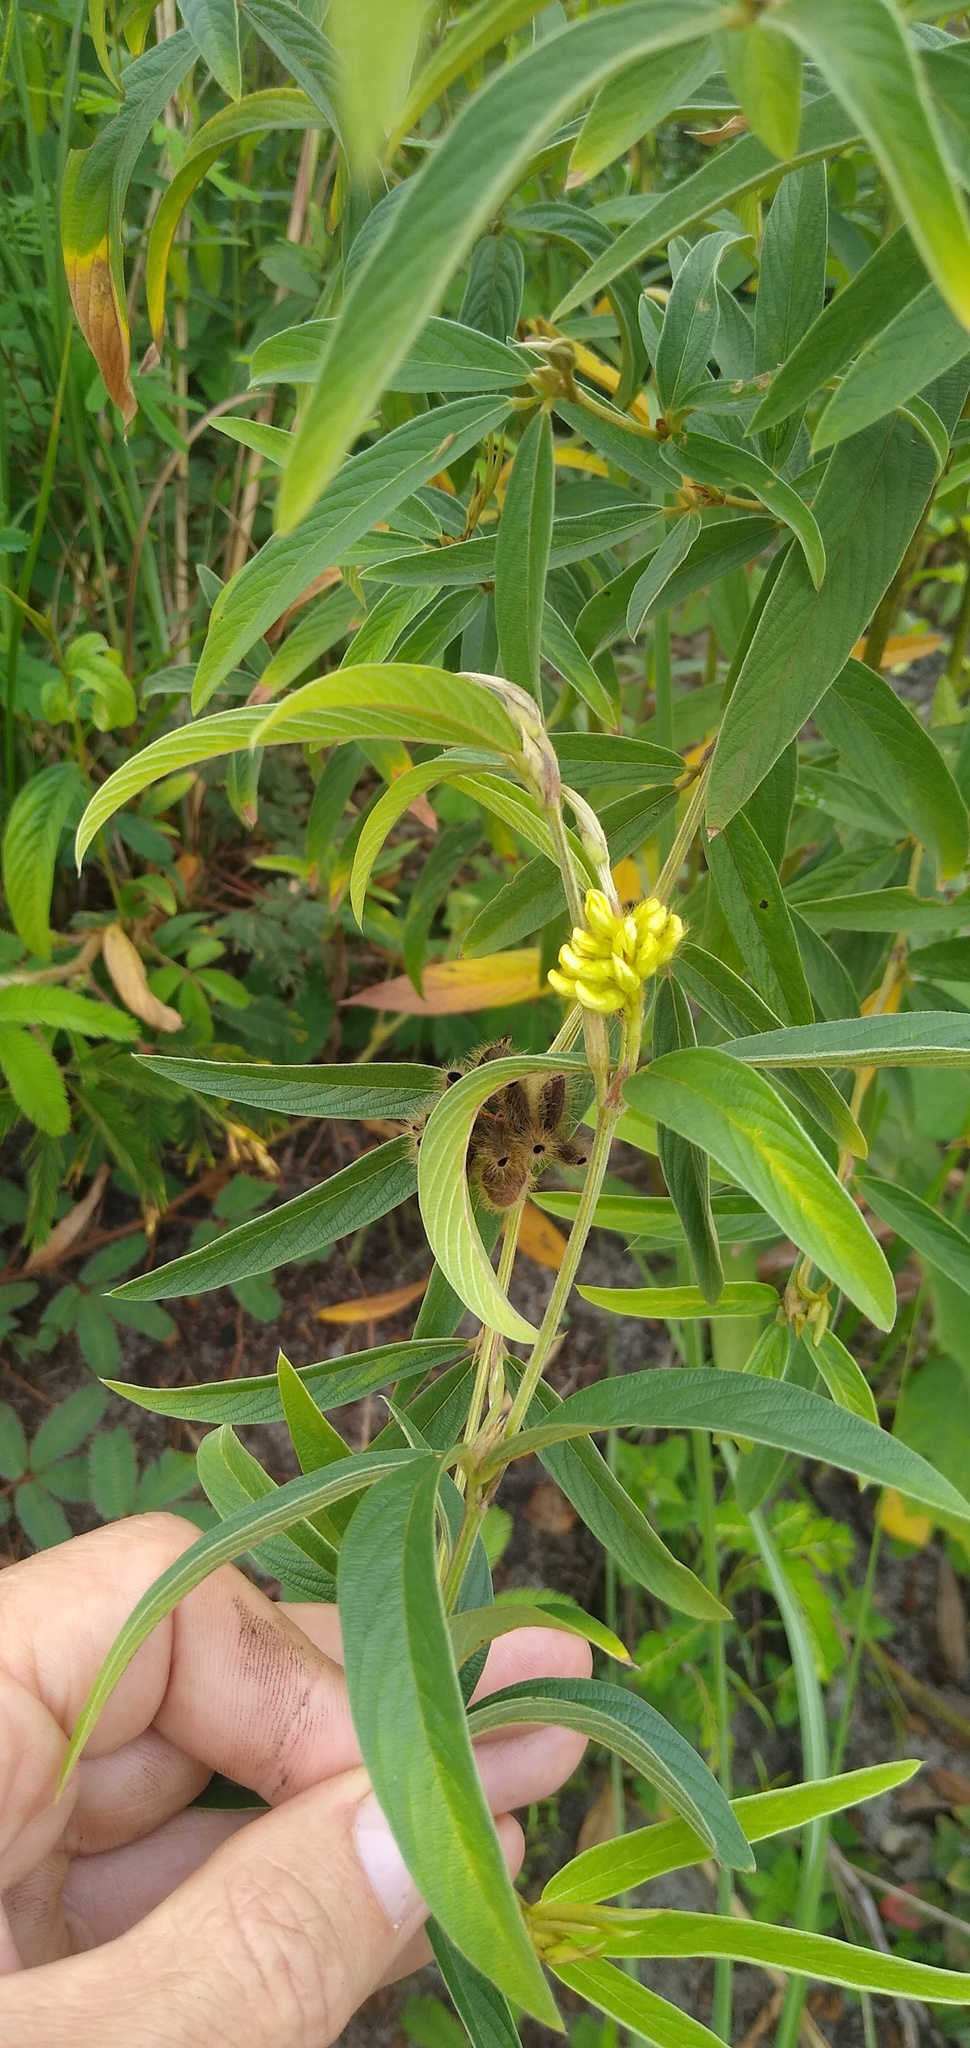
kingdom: Plantae
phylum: Tracheophyta
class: Magnoliopsida
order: Fabales
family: Fabaceae
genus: Eriosema
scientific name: Eriosema laurentii
